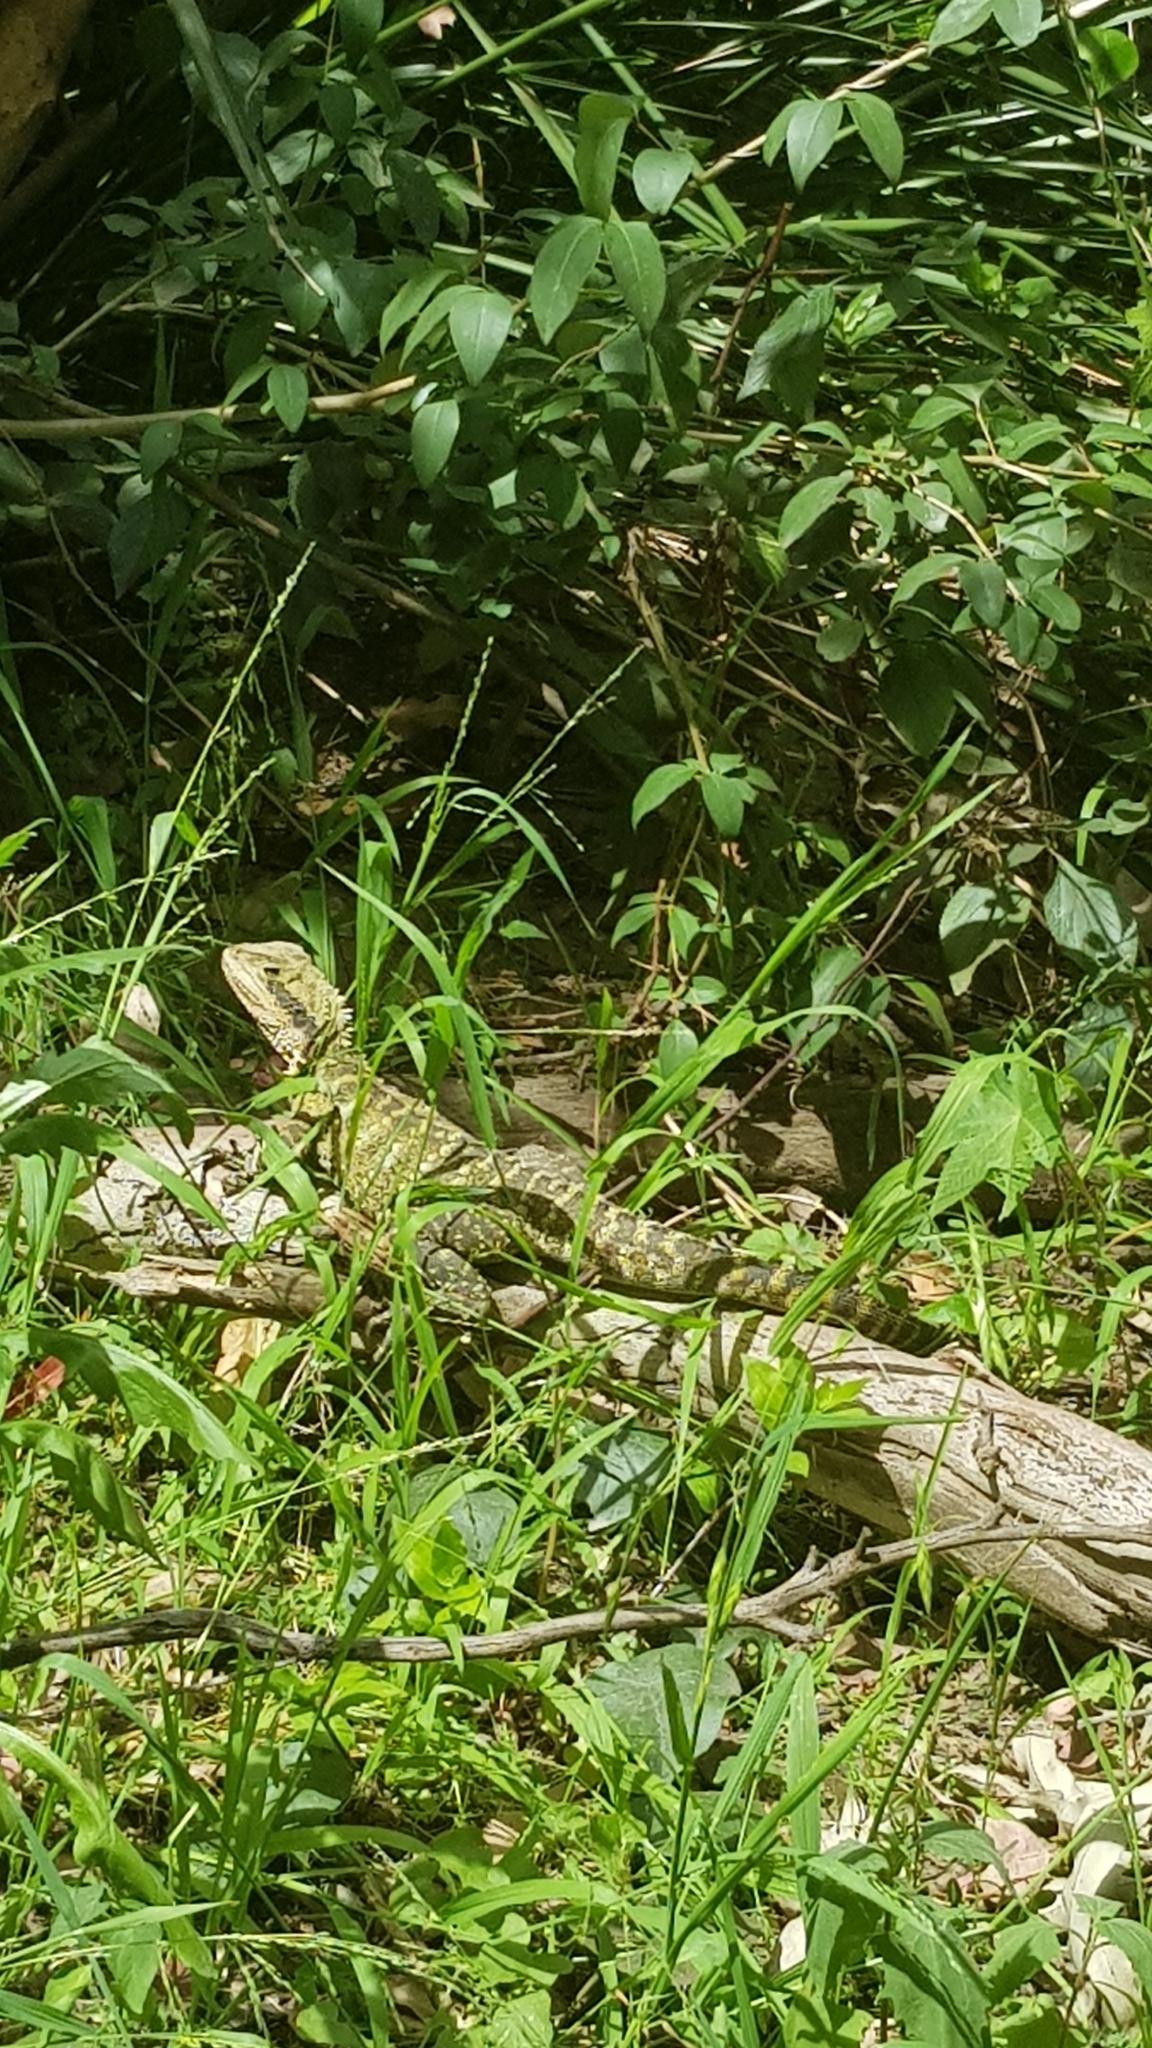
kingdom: Animalia
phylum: Chordata
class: Squamata
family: Agamidae
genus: Intellagama
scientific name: Intellagama lesueurii
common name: Eastern water dragon
